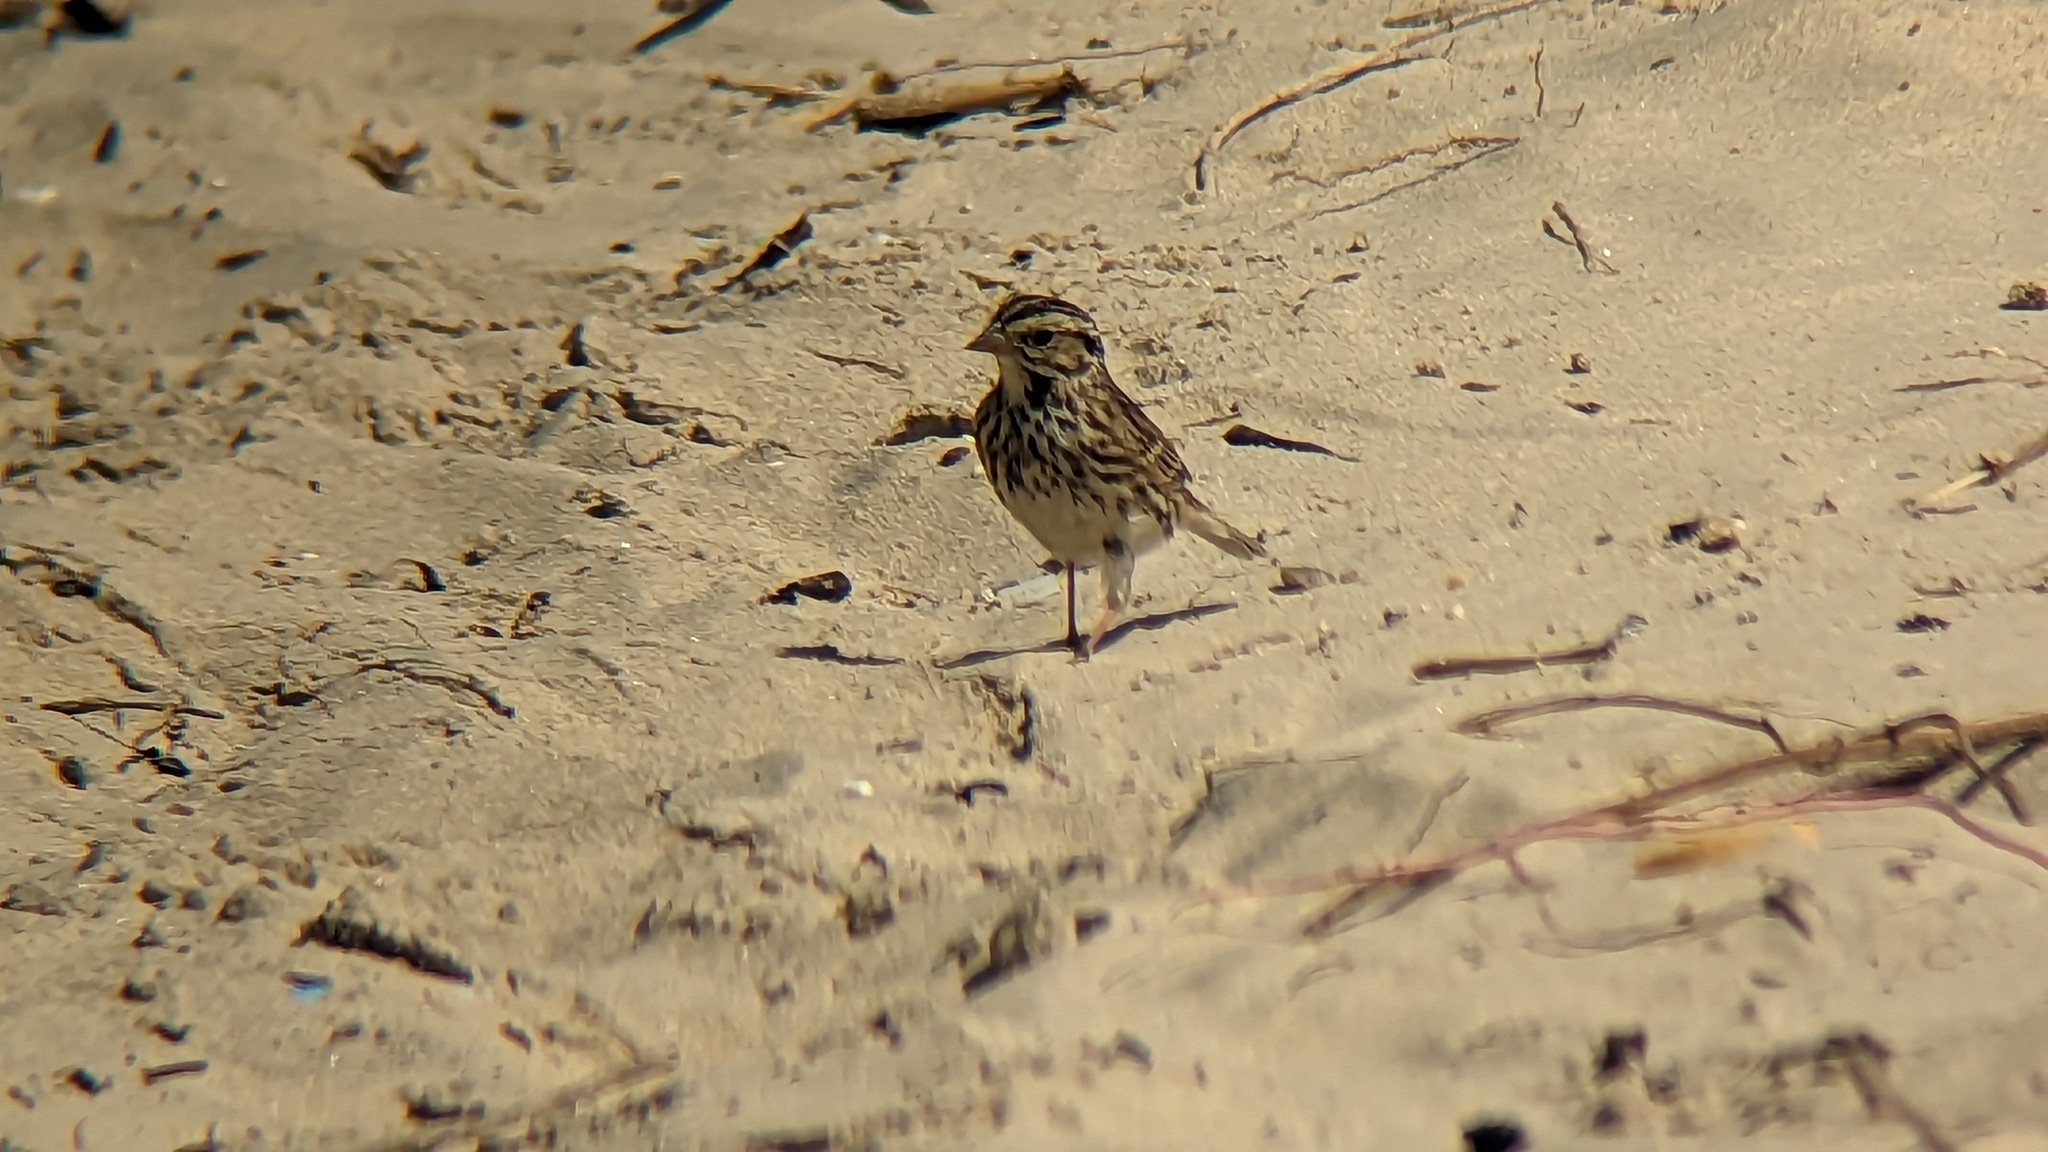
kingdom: Animalia
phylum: Chordata
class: Aves
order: Passeriformes
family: Passerellidae
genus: Passerculus
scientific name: Passerculus sandwichensis
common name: Savannah sparrow
